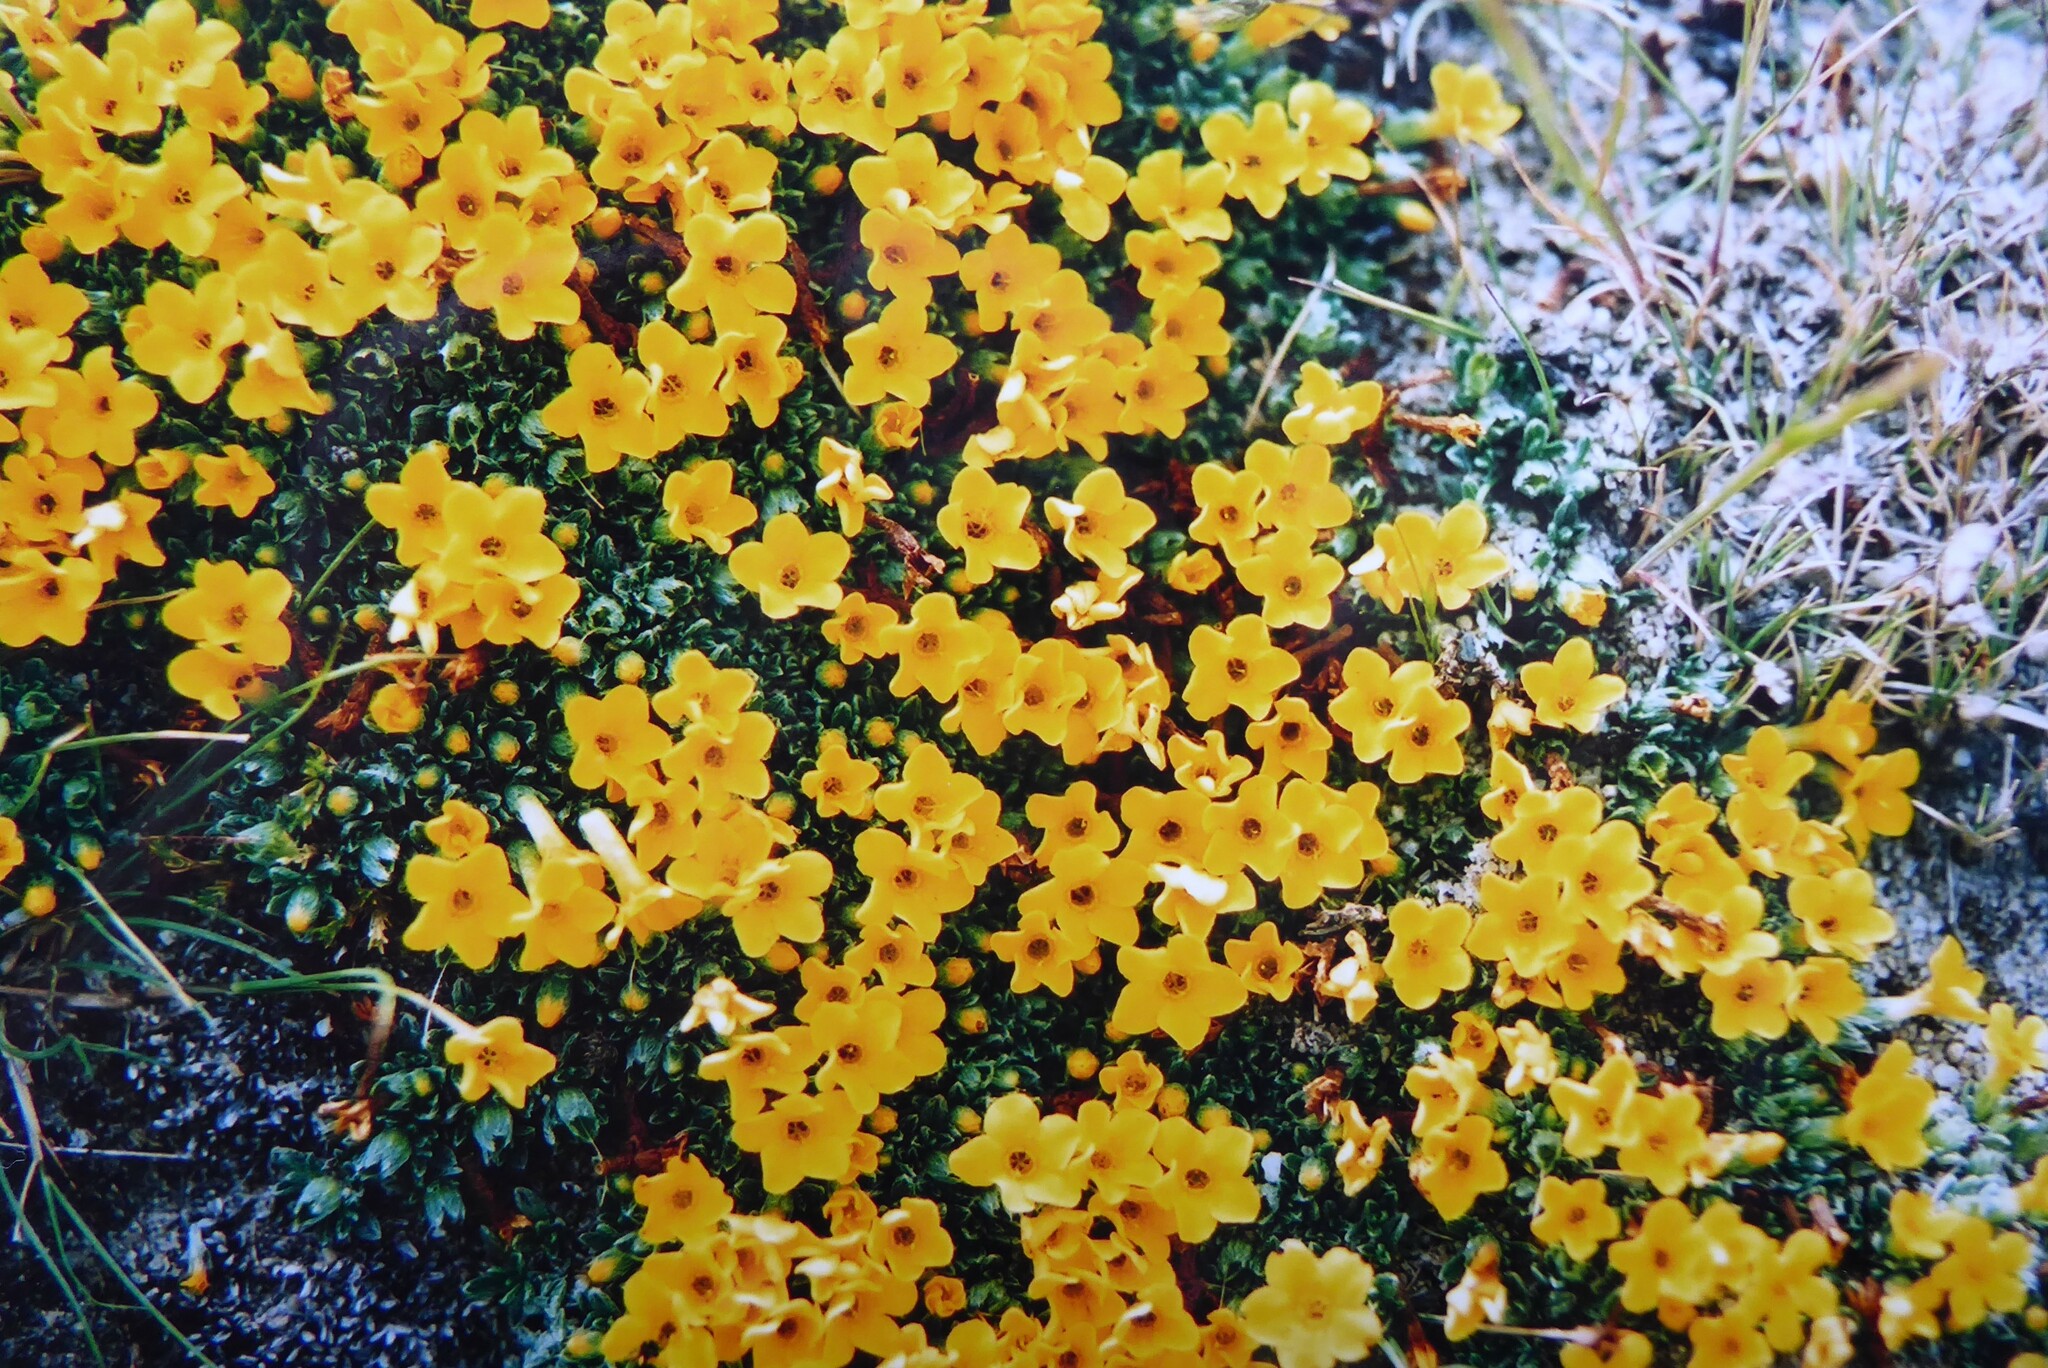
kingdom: Plantae
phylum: Tracheophyta
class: Magnoliopsida
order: Boraginales
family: Boraginaceae
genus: Myosotis
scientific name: Myosotis uniflora
